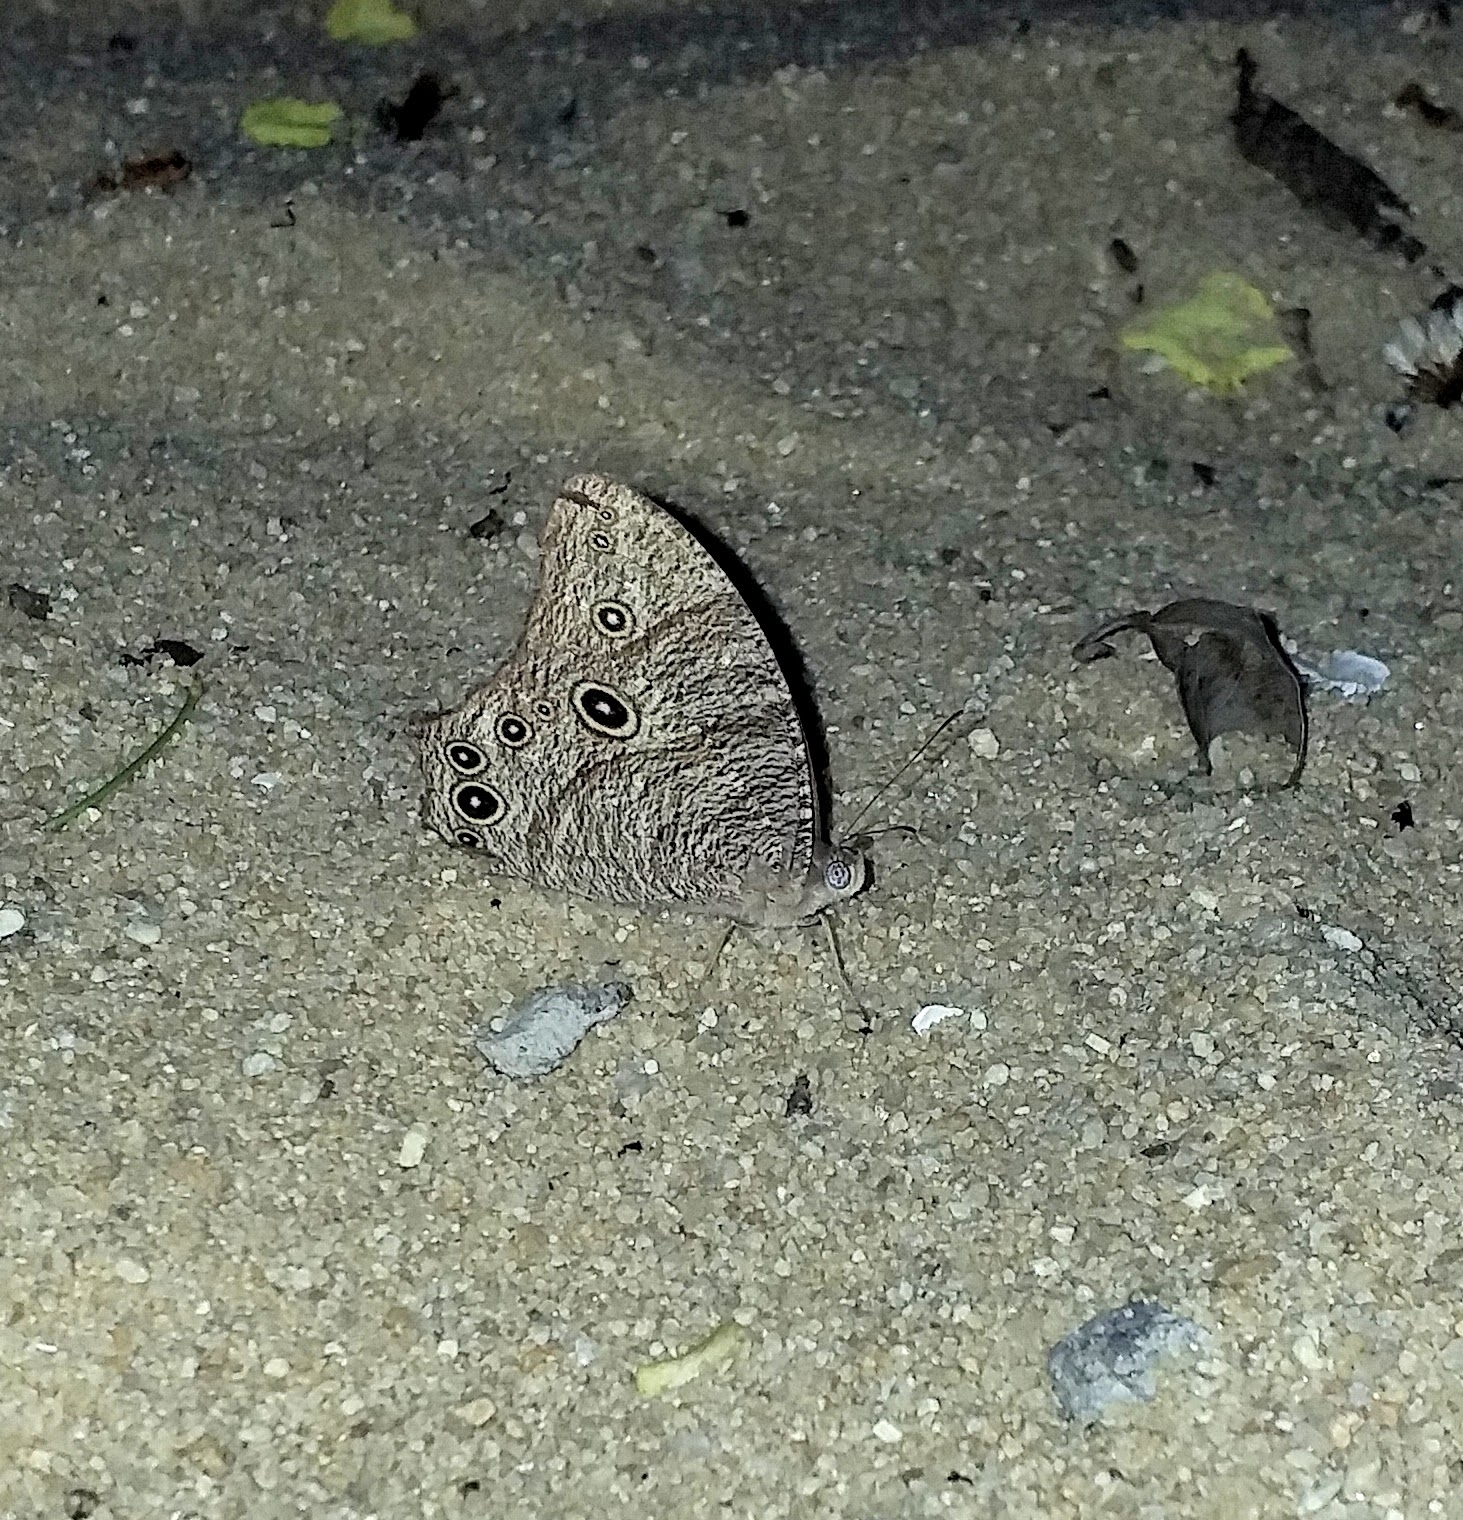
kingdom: Animalia
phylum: Arthropoda
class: Insecta
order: Lepidoptera
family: Nymphalidae
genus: Melanitis
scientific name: Melanitis leda
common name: Twilight brown
